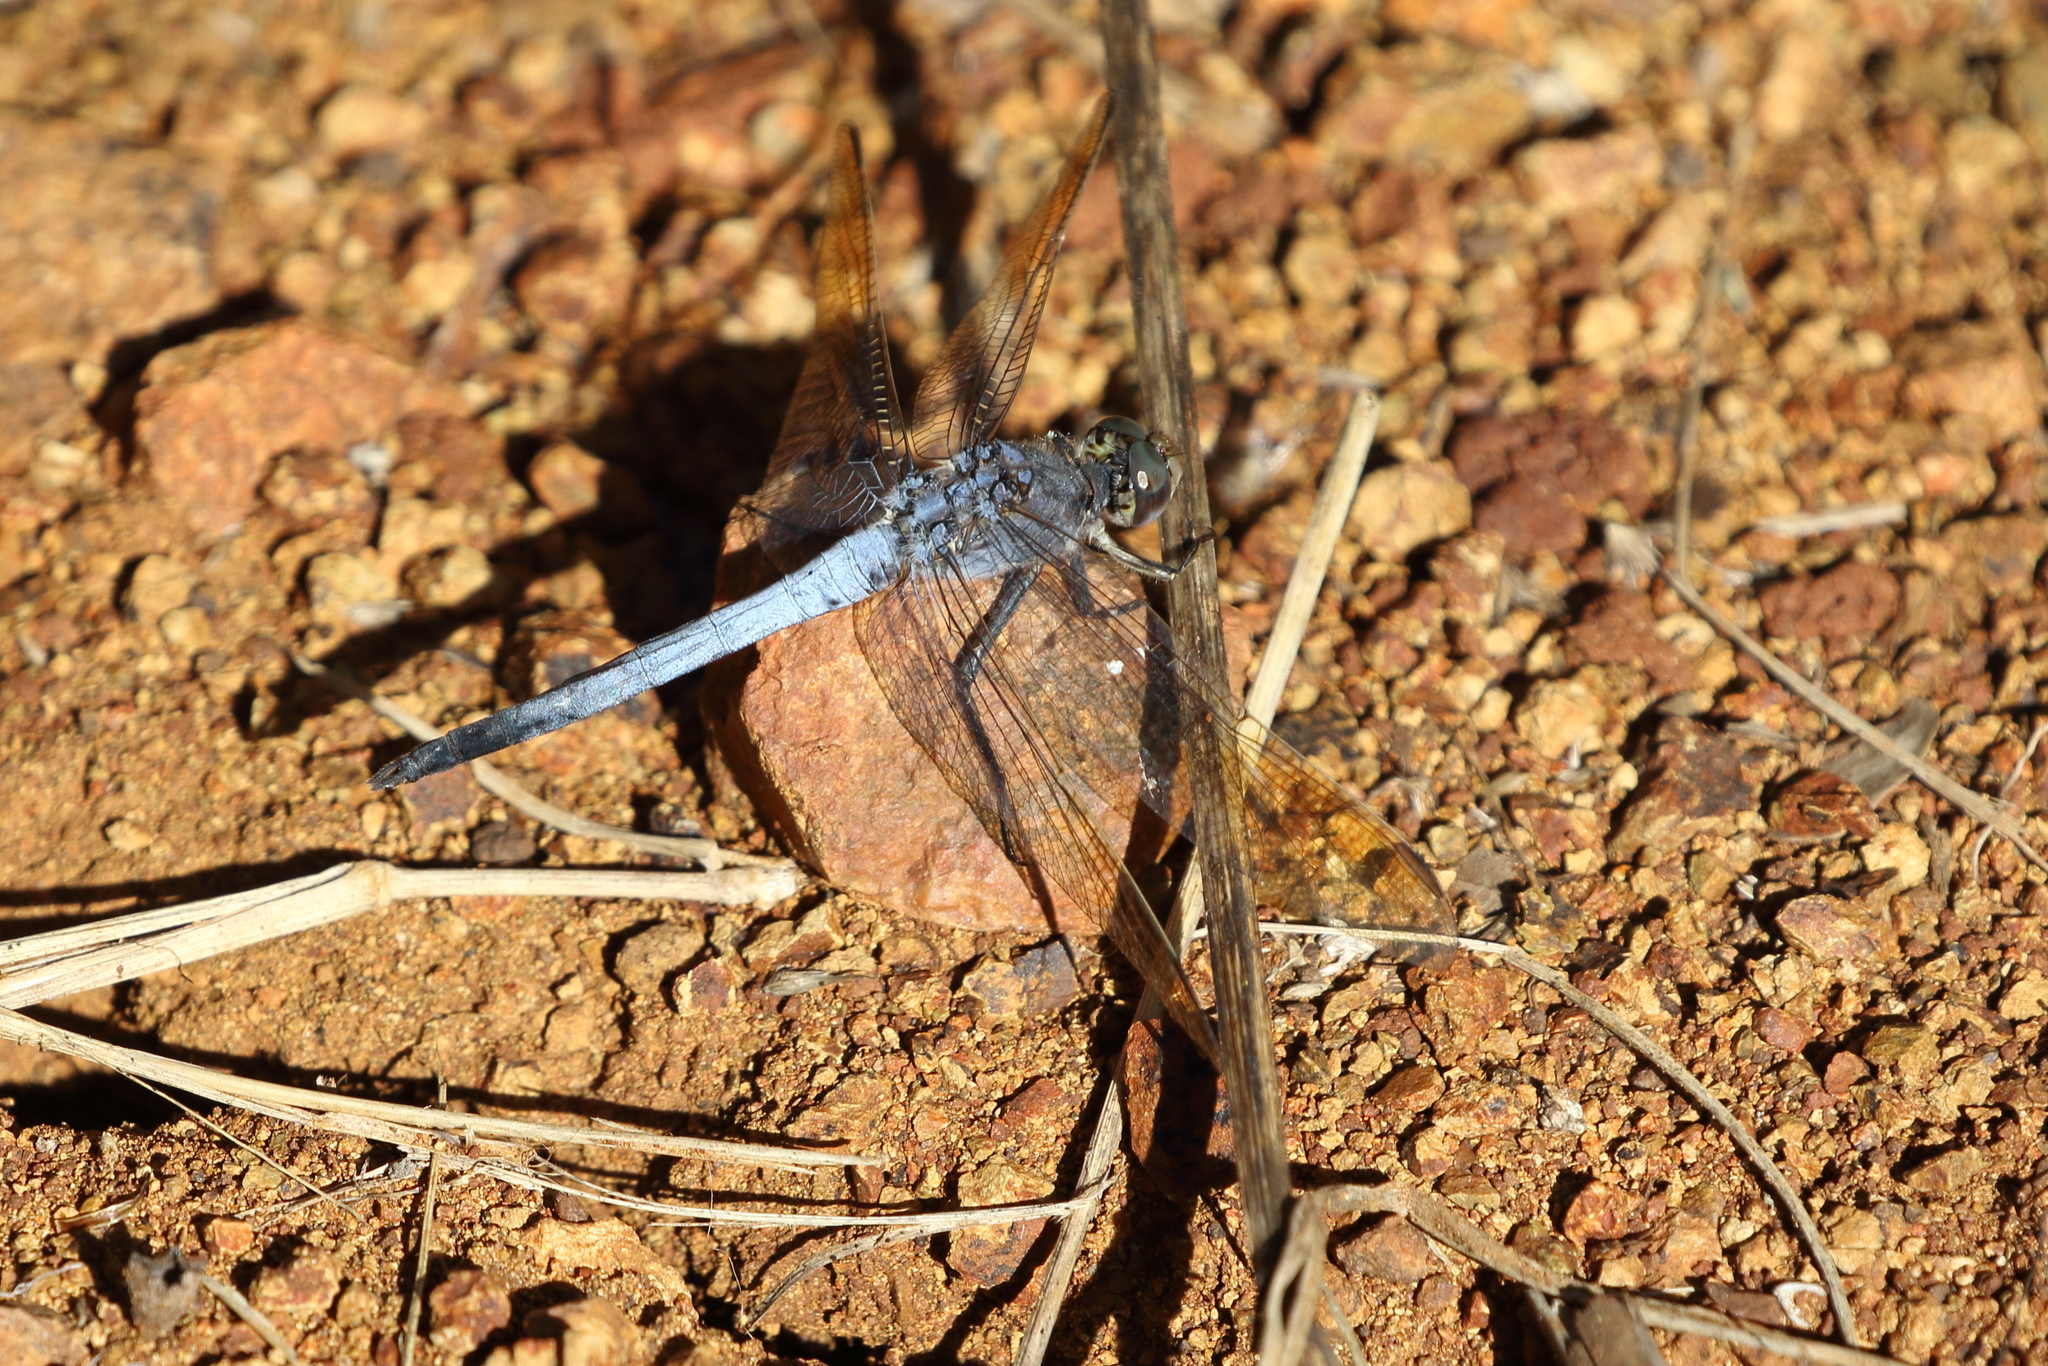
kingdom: Animalia
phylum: Arthropoda
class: Insecta
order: Odonata
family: Libellulidae
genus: Orthetrum
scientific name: Orthetrum caledonicum
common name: Blue skimmer
